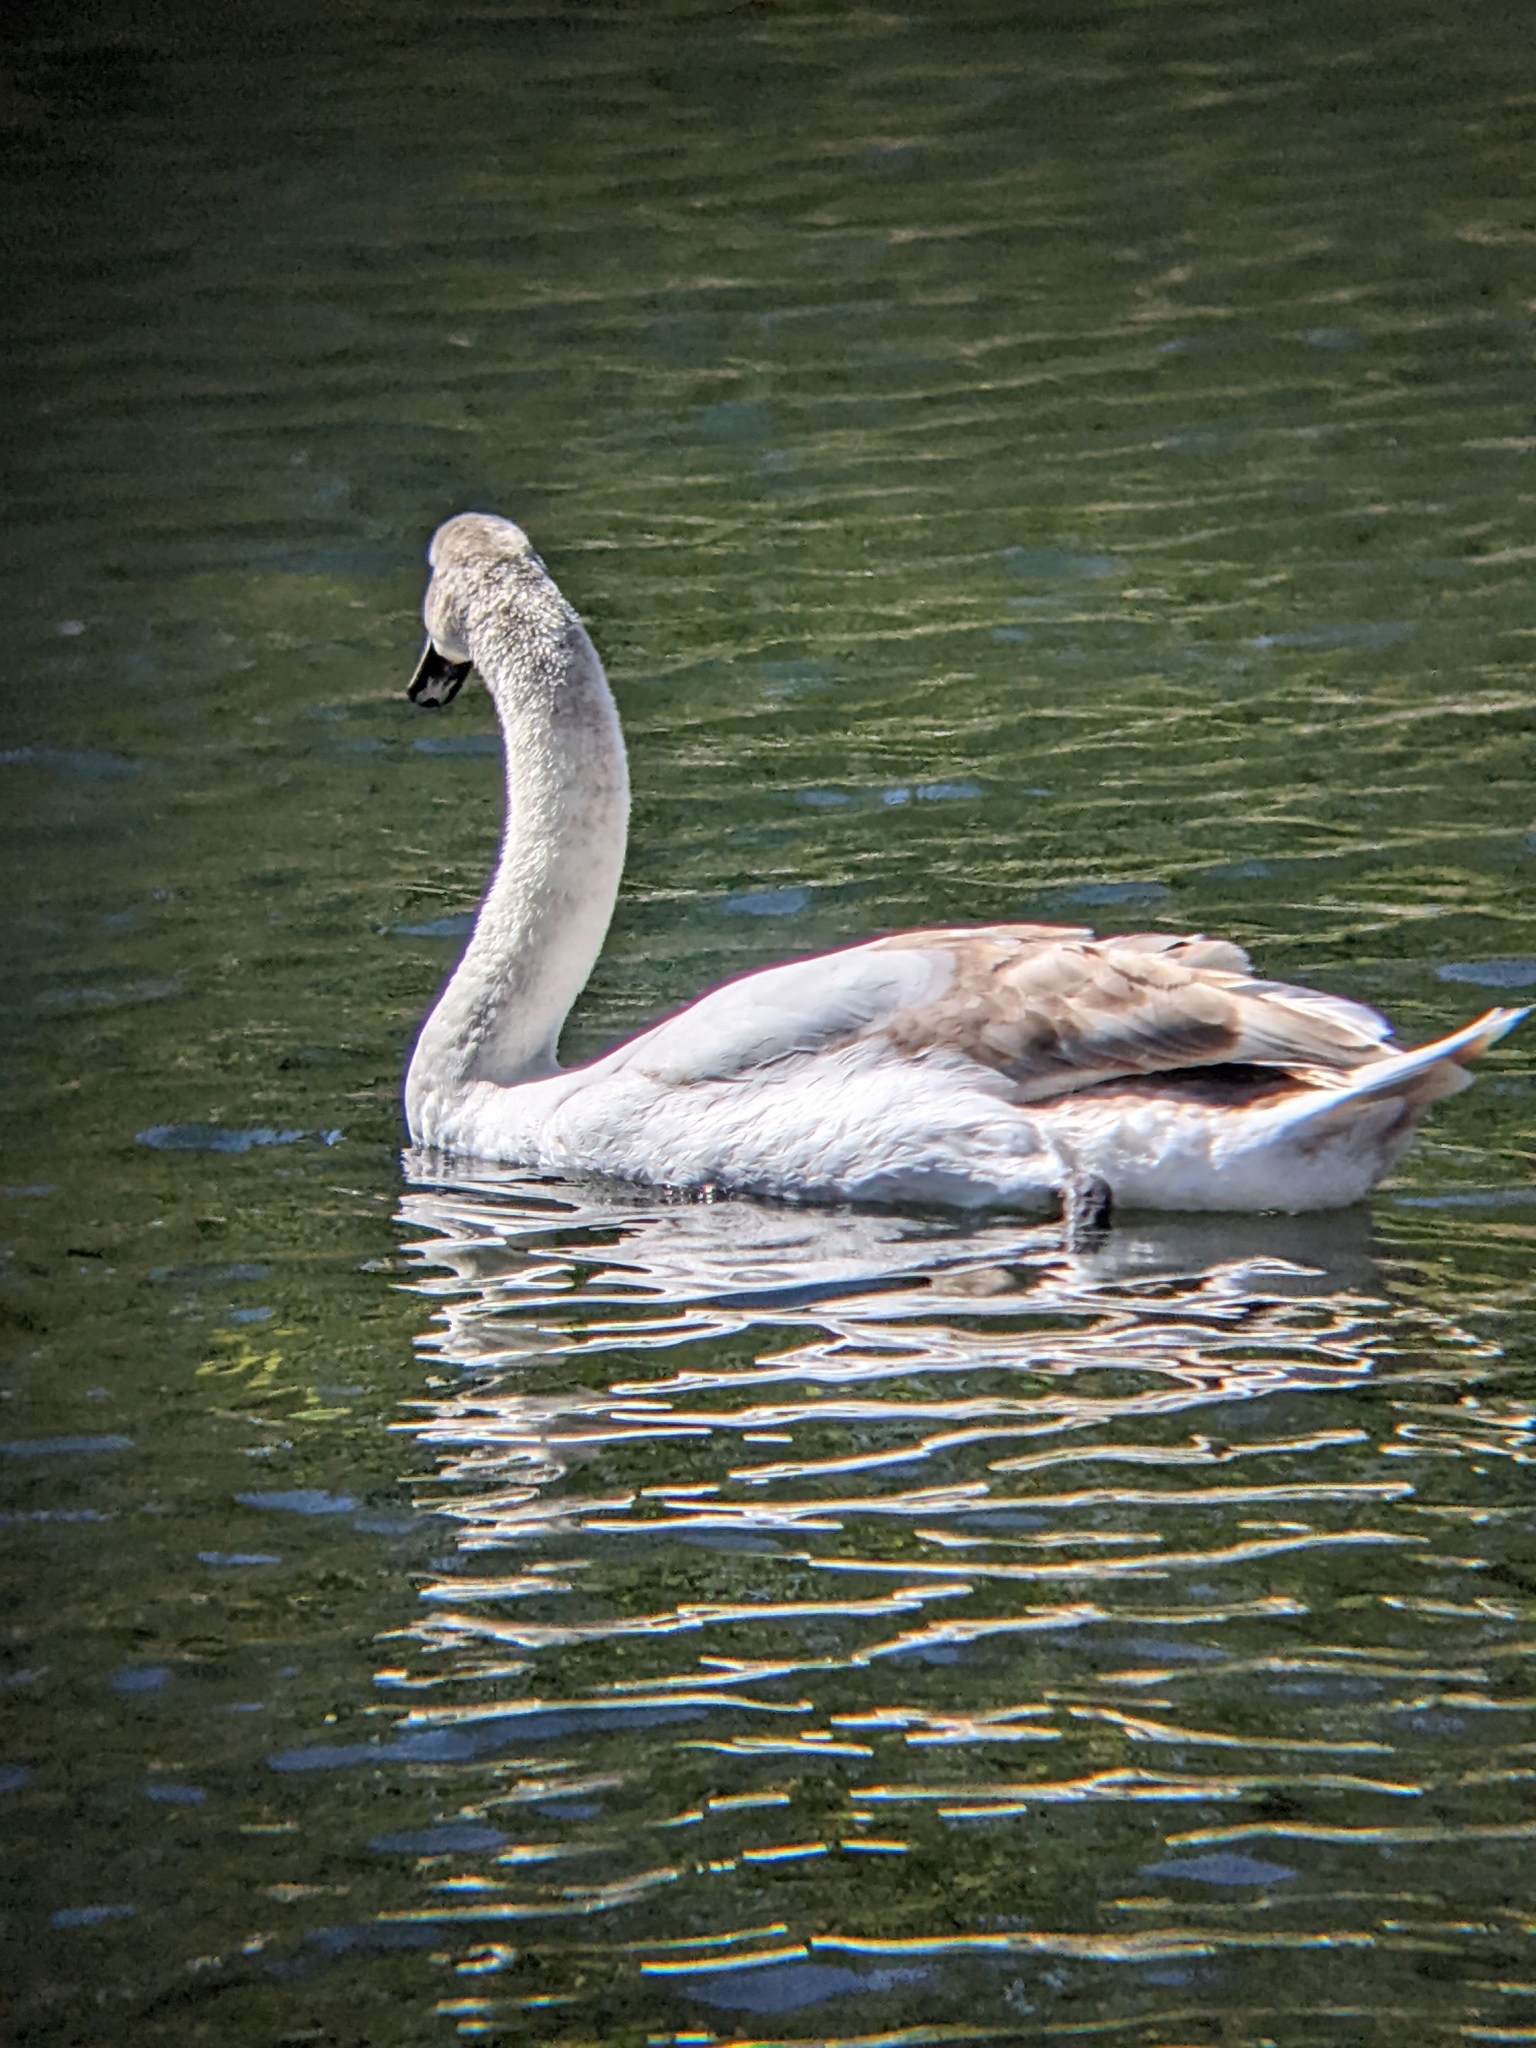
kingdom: Animalia
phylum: Chordata
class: Aves
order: Anseriformes
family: Anatidae
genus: Cygnus
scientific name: Cygnus olor
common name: Mute swan
